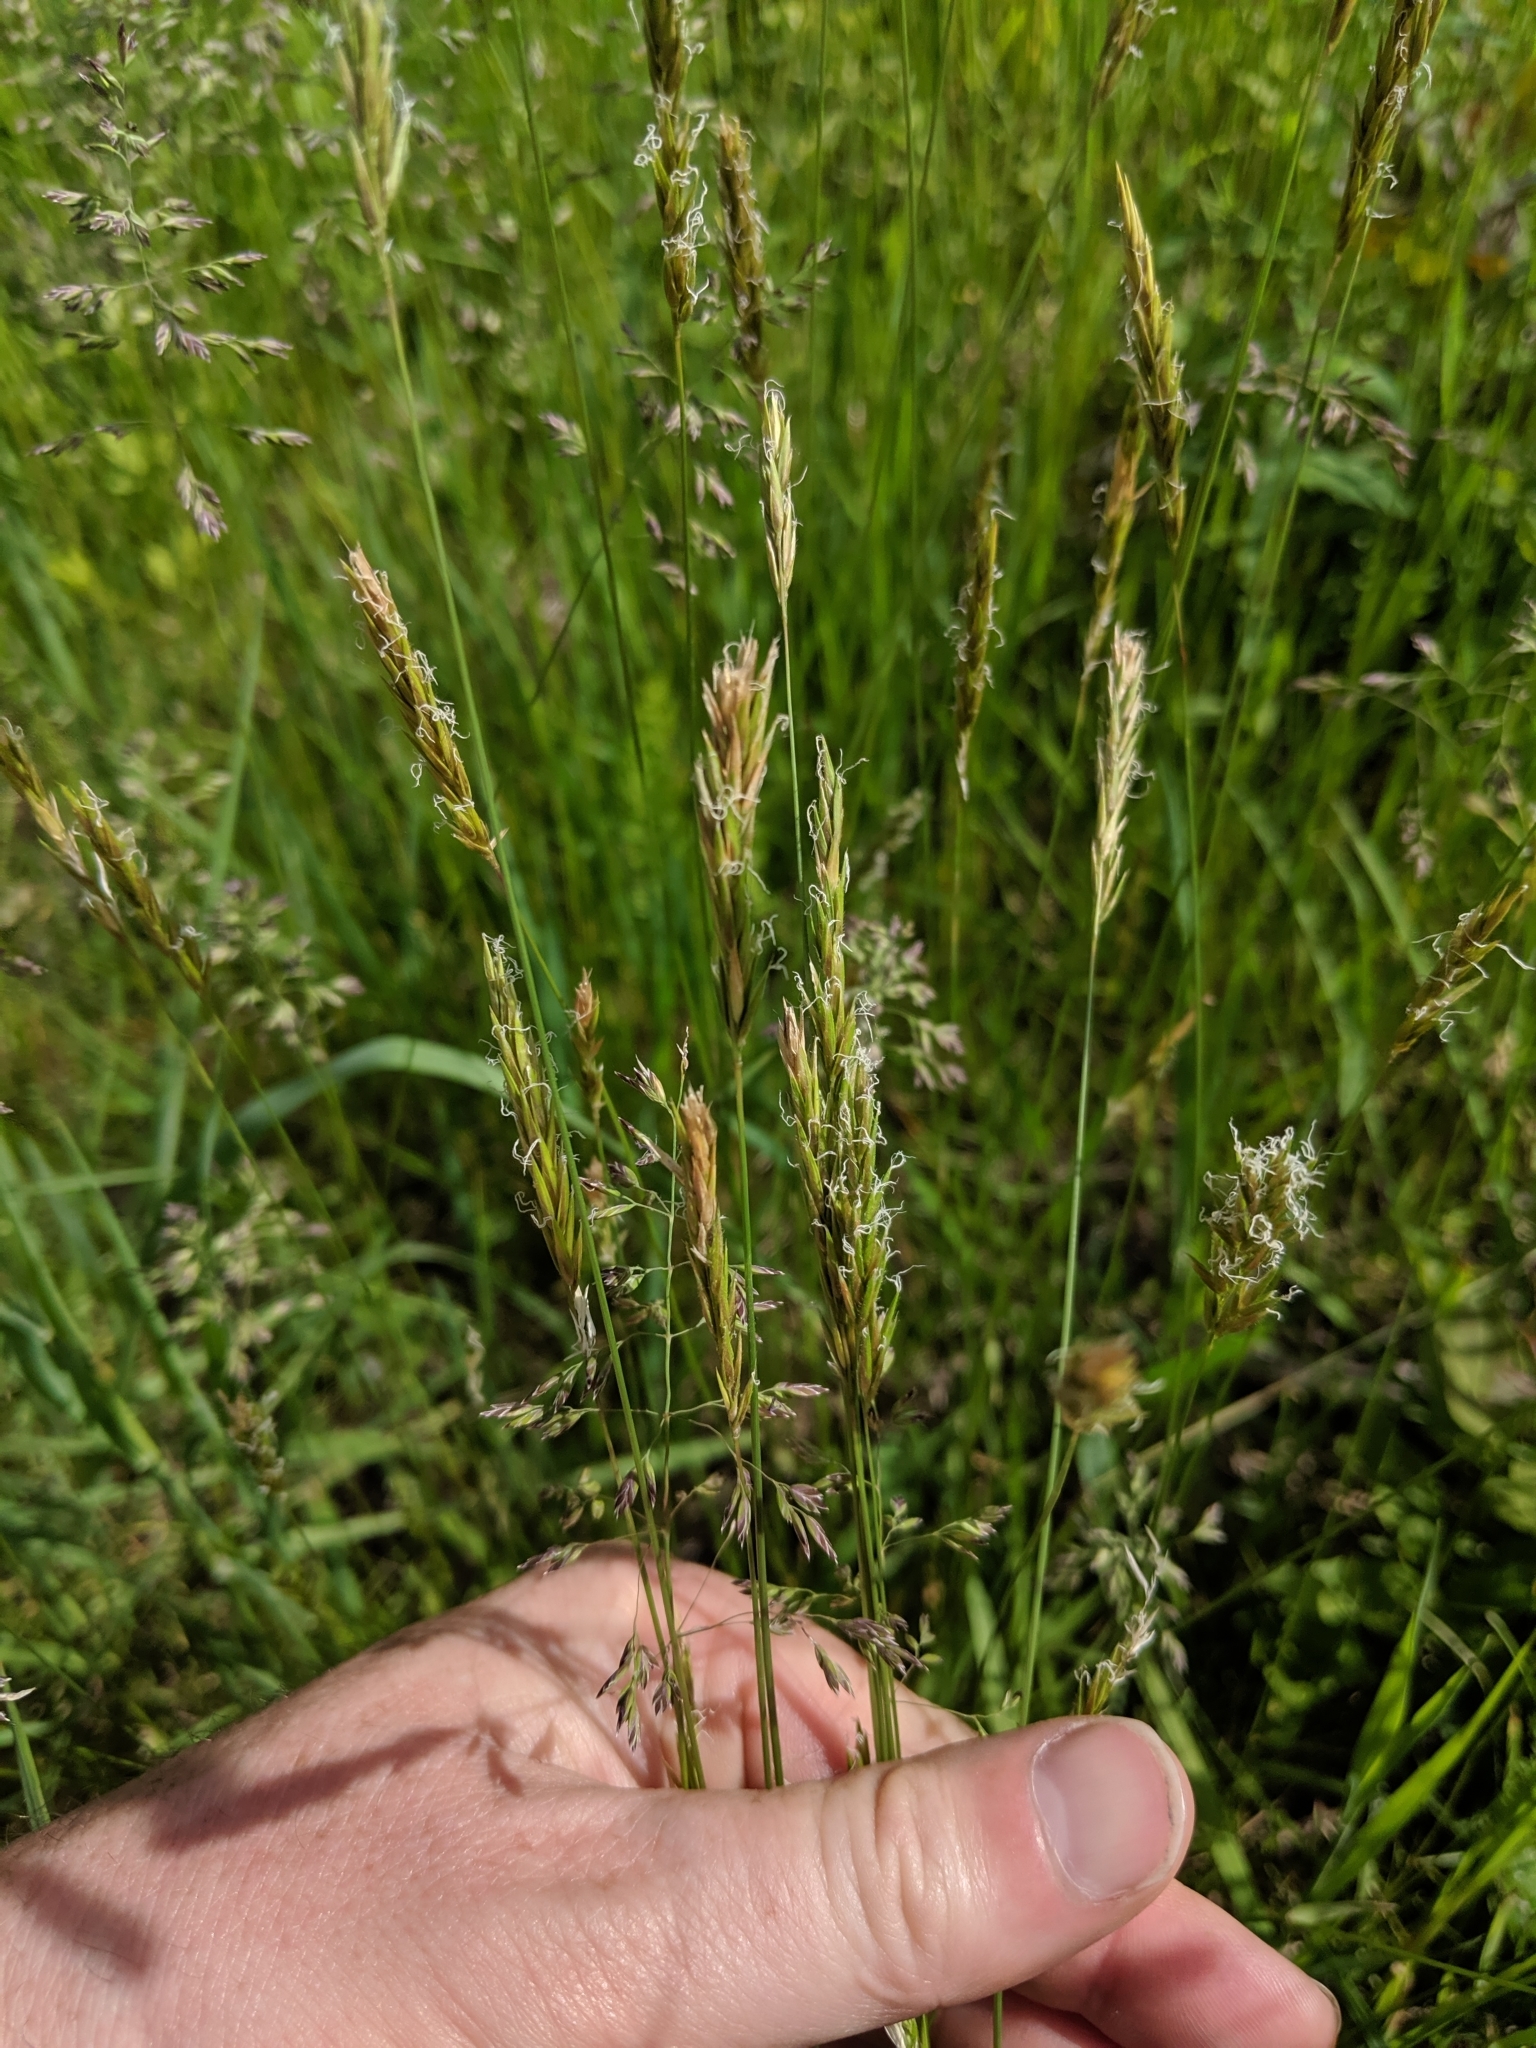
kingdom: Plantae
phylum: Tracheophyta
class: Liliopsida
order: Poales
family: Poaceae
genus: Anthoxanthum
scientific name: Anthoxanthum odoratum
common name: Sweet vernalgrass
